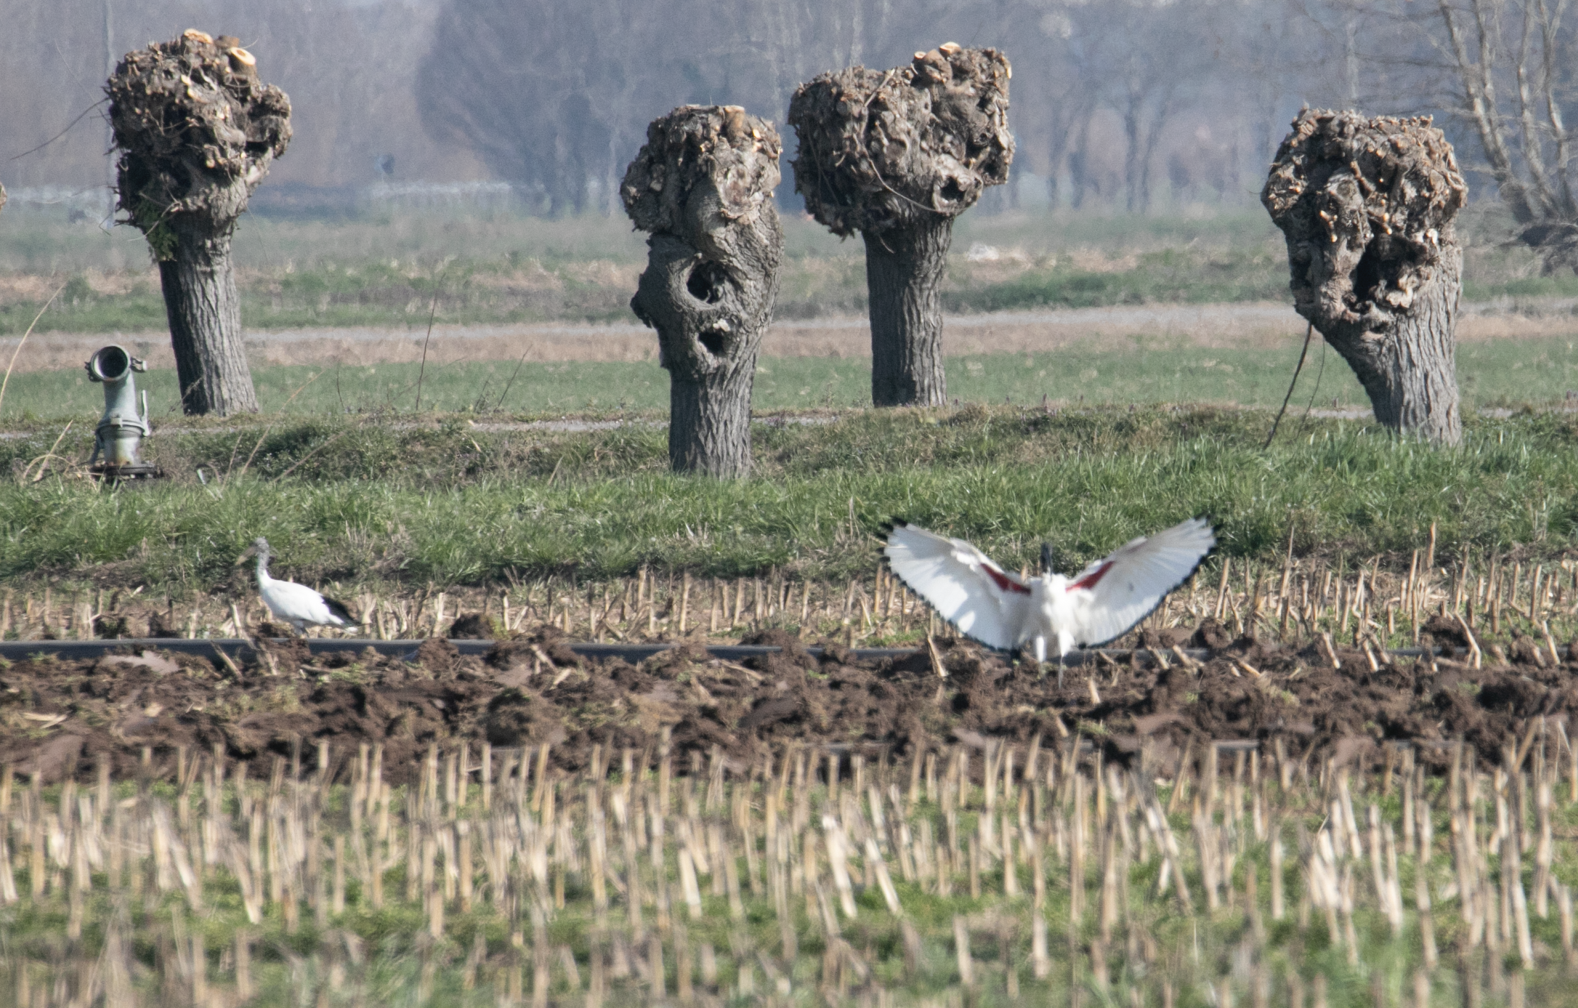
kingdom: Animalia
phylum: Chordata
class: Aves
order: Pelecaniformes
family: Threskiornithidae
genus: Threskiornis
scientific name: Threskiornis aethiopicus
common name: Sacred ibis
